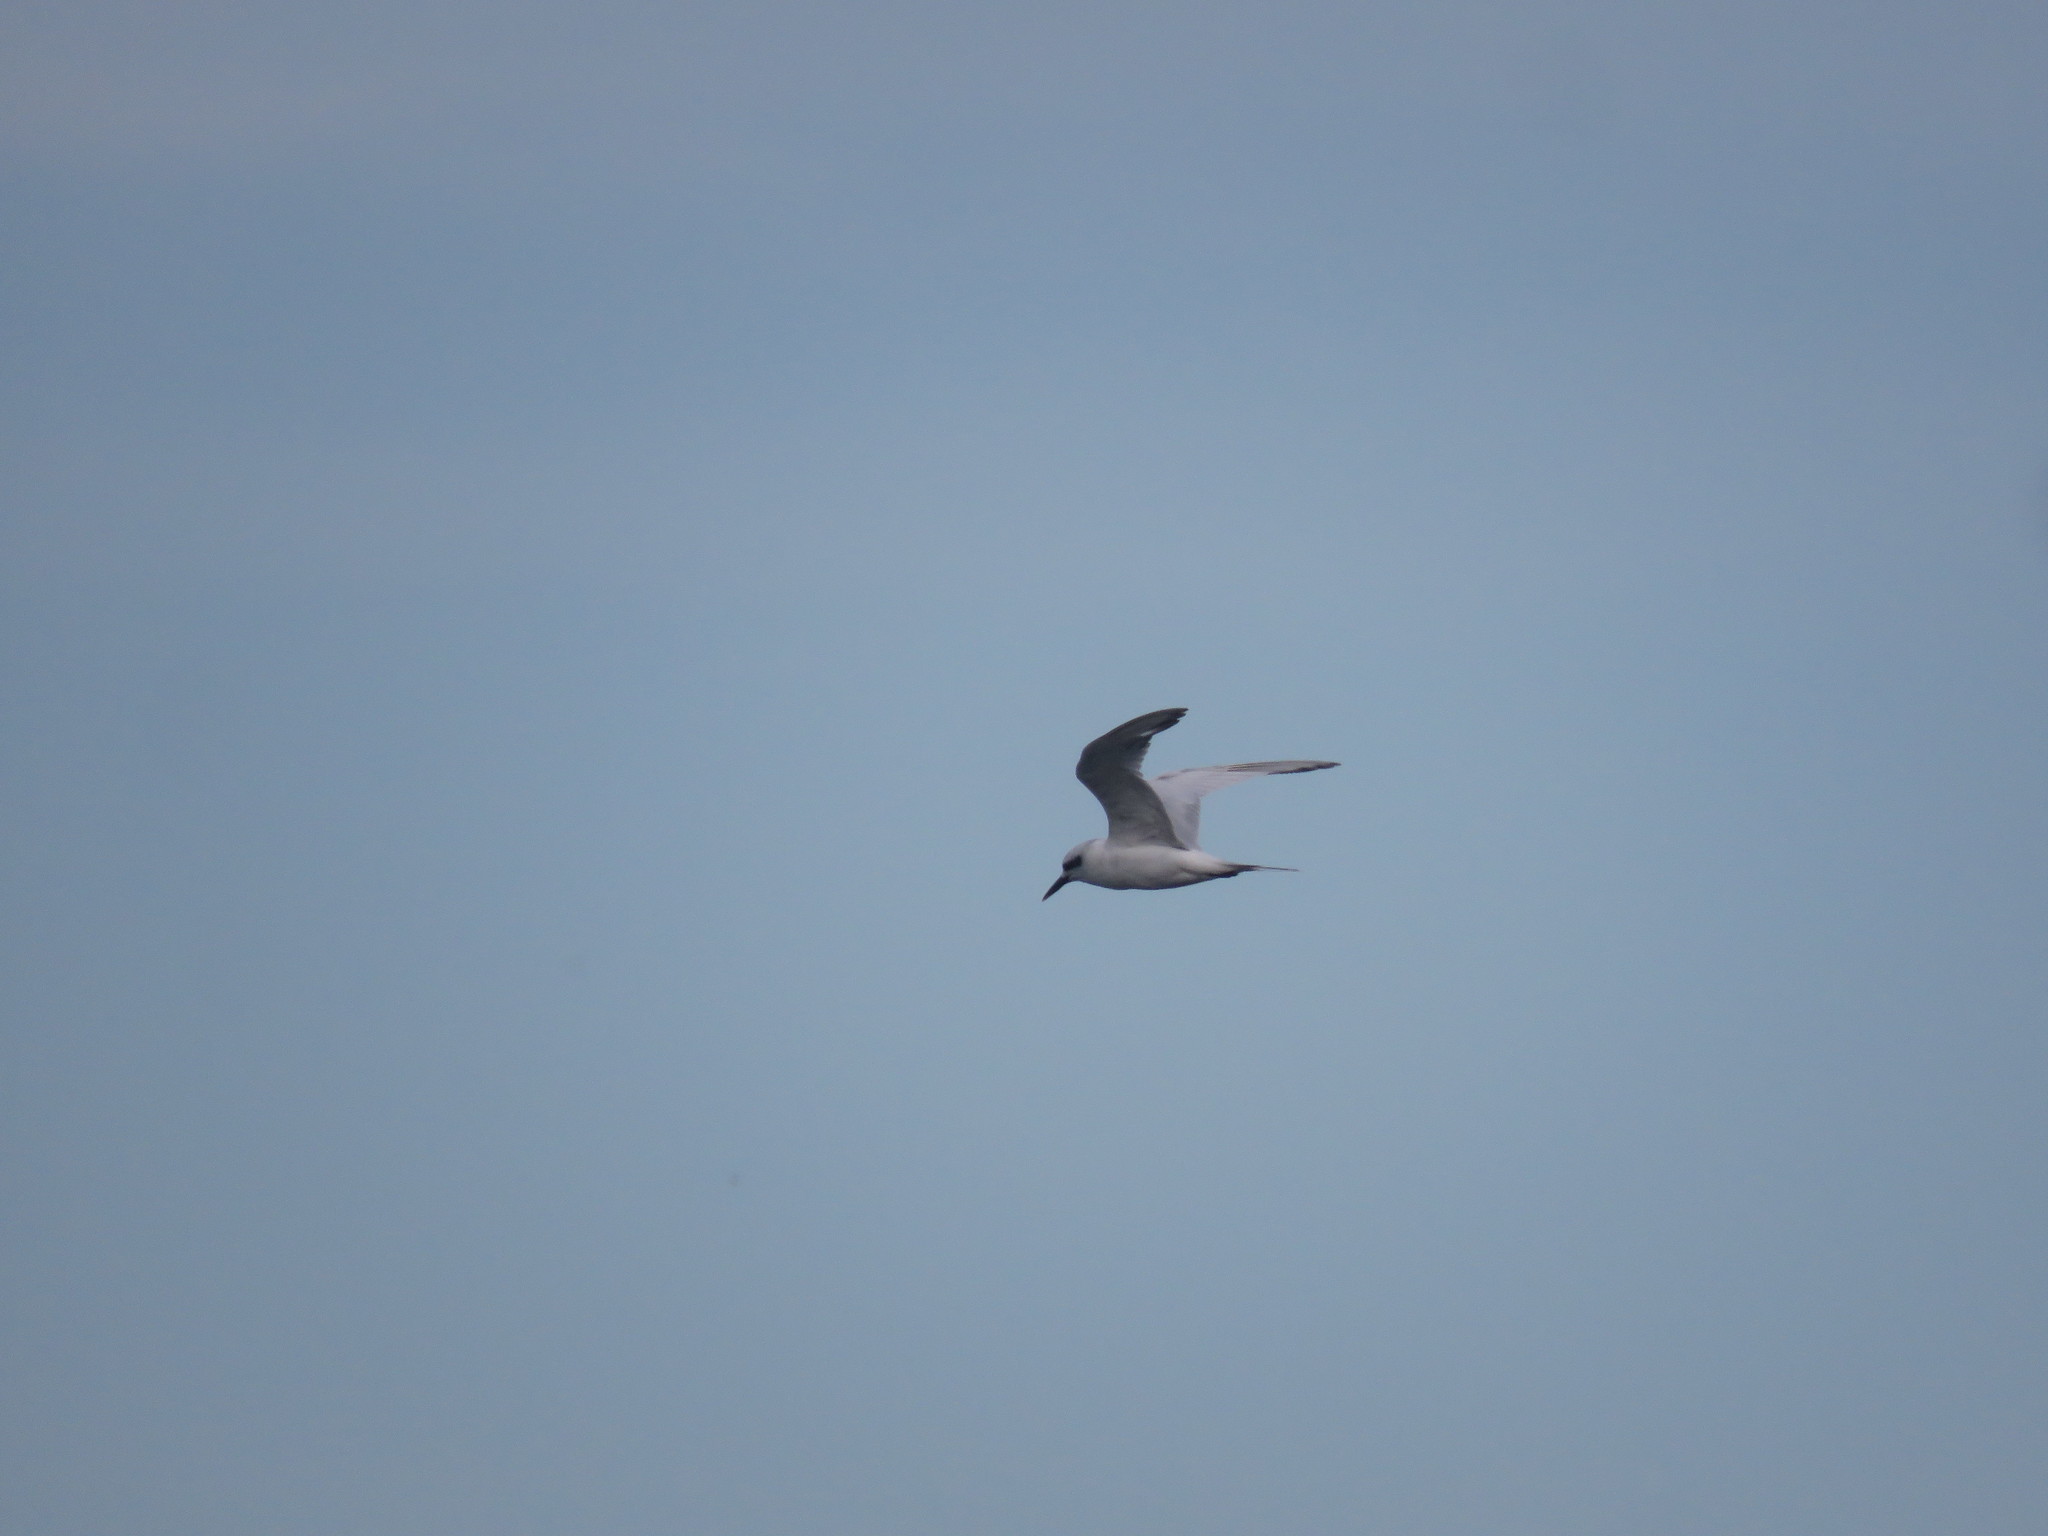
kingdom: Animalia
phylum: Chordata
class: Aves
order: Charadriiformes
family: Laridae
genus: Sterna
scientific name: Sterna trudeaui
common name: Snowy-crowned tern
